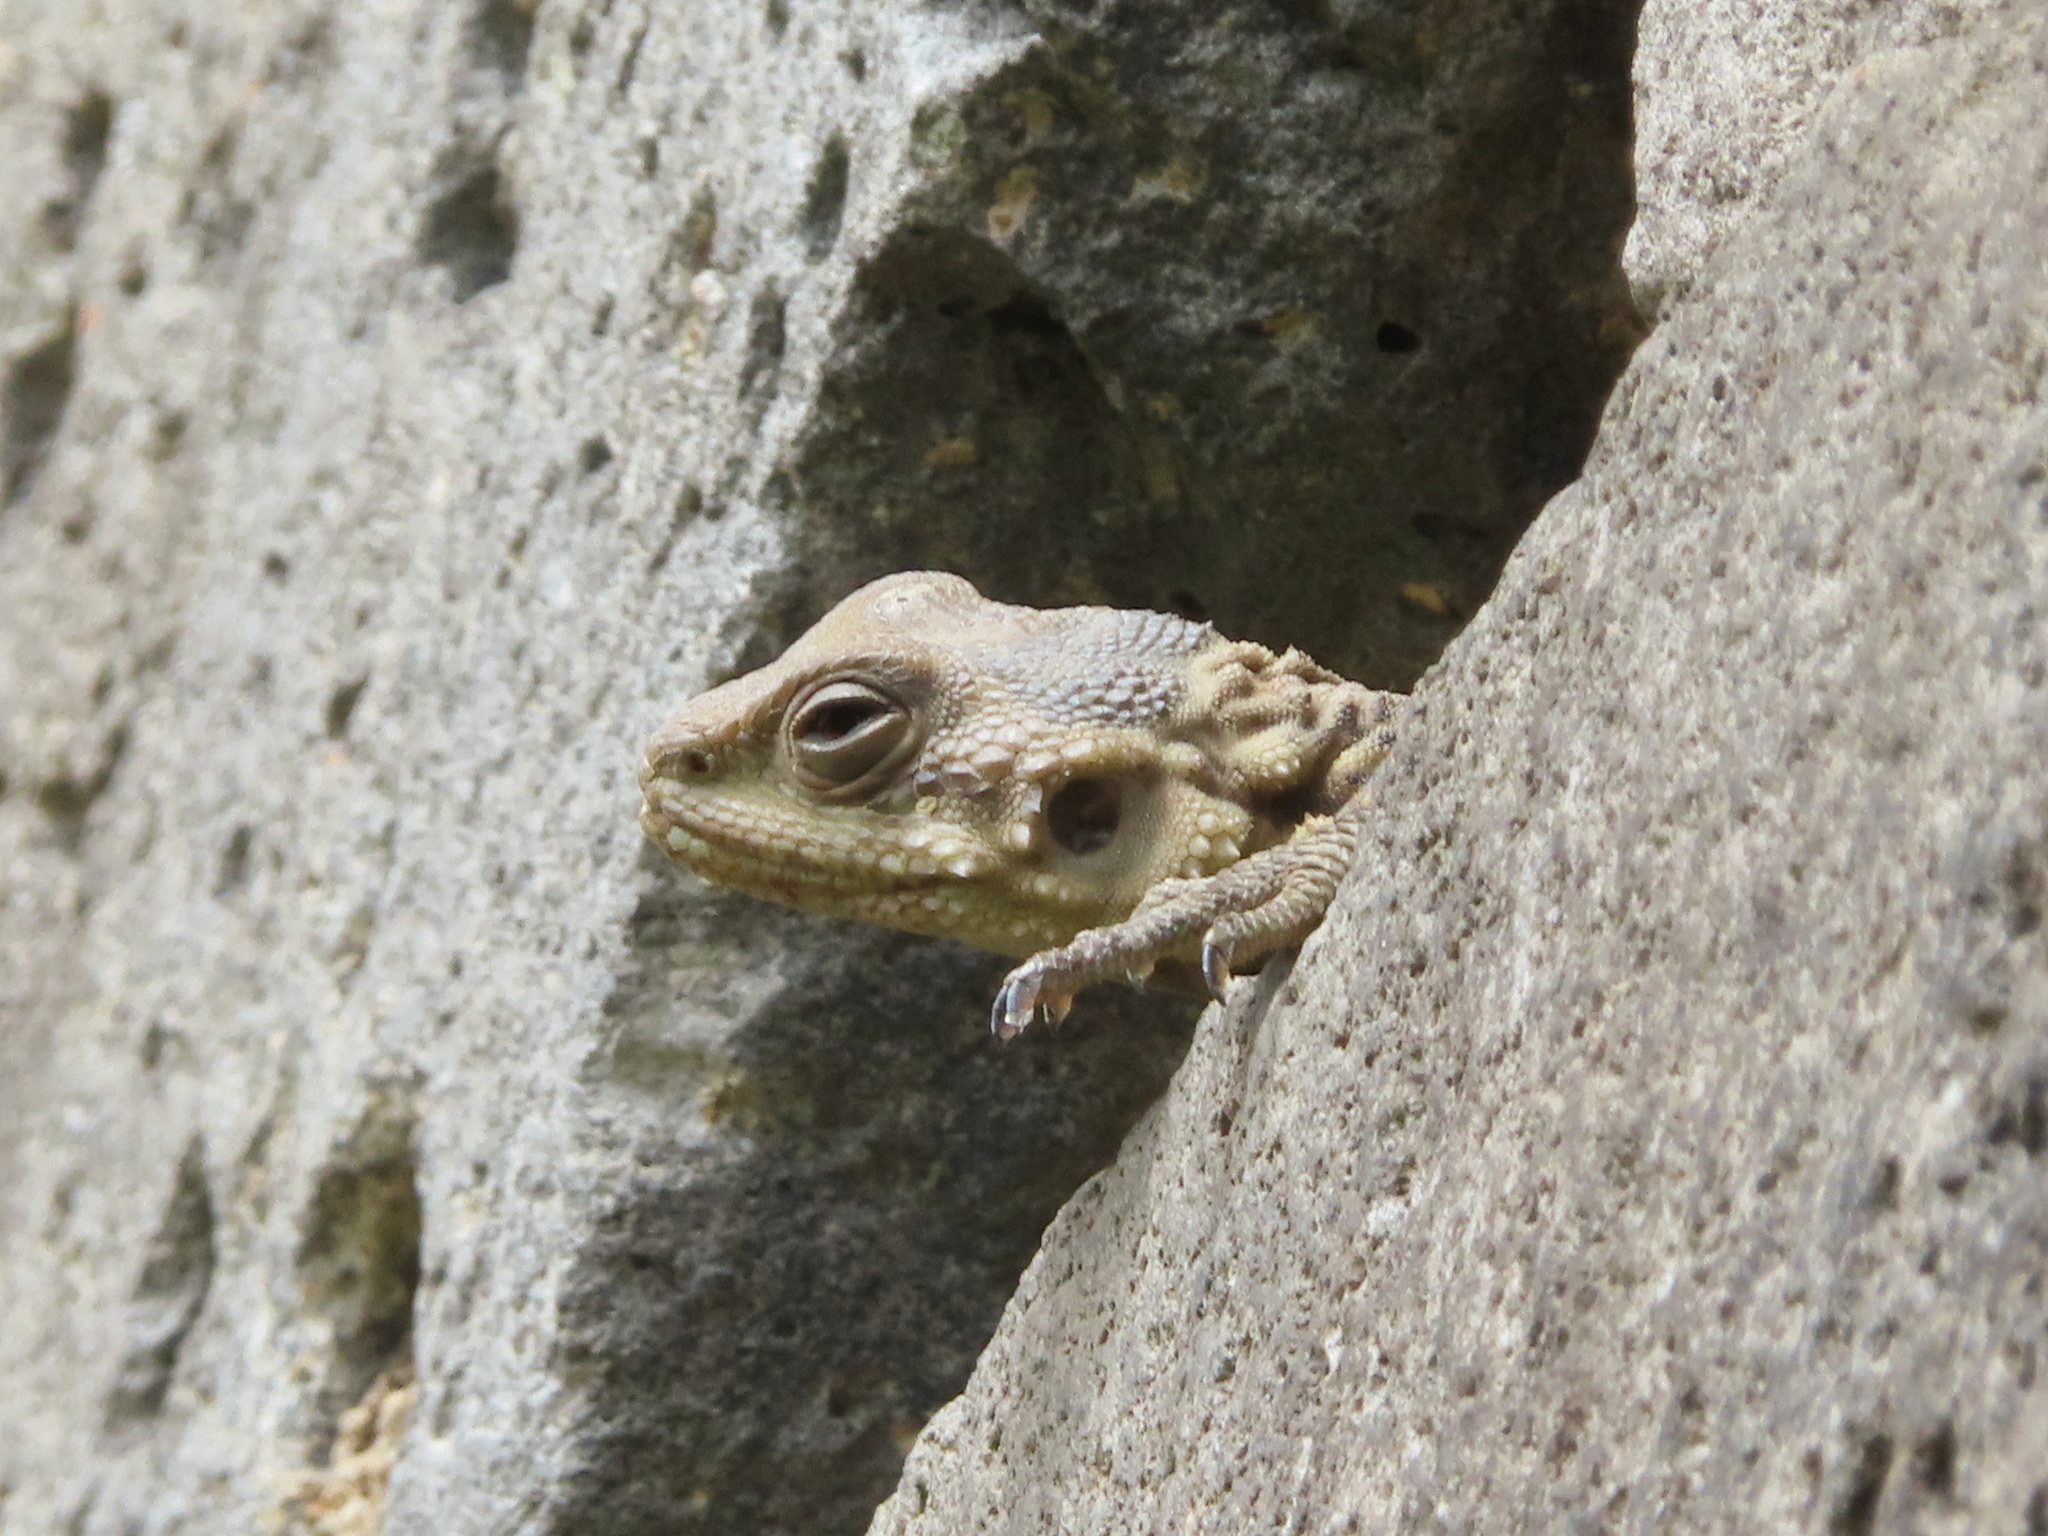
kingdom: Animalia
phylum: Chordata
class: Squamata
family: Agamidae
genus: Paralaudakia
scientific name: Paralaudakia caucasia
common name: Caucasian agama
